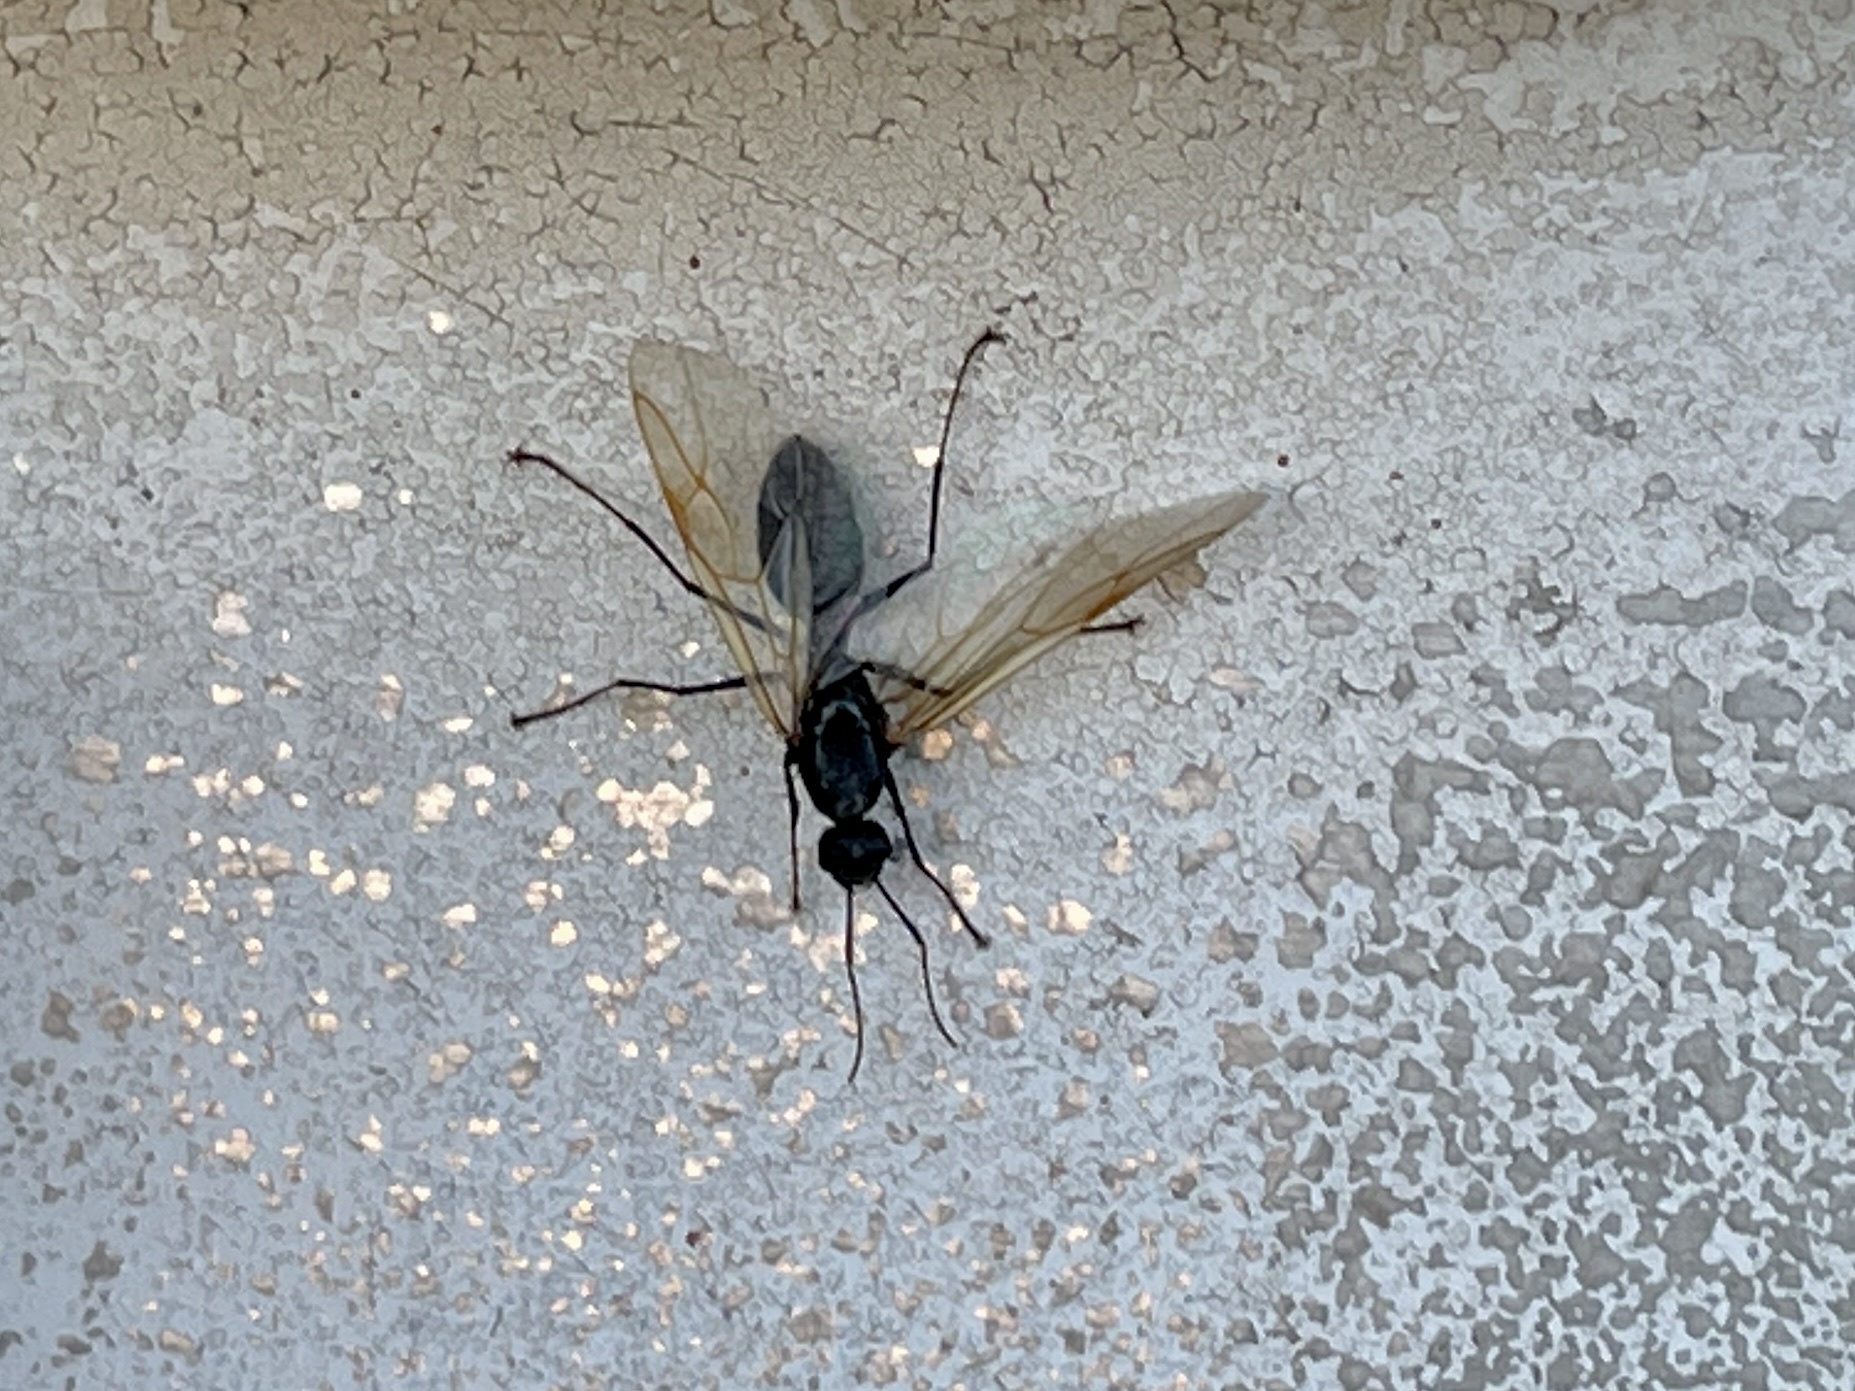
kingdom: Animalia
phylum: Arthropoda
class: Insecta
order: Hymenoptera
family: Formicidae
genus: Camponotus
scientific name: Camponotus modoc
